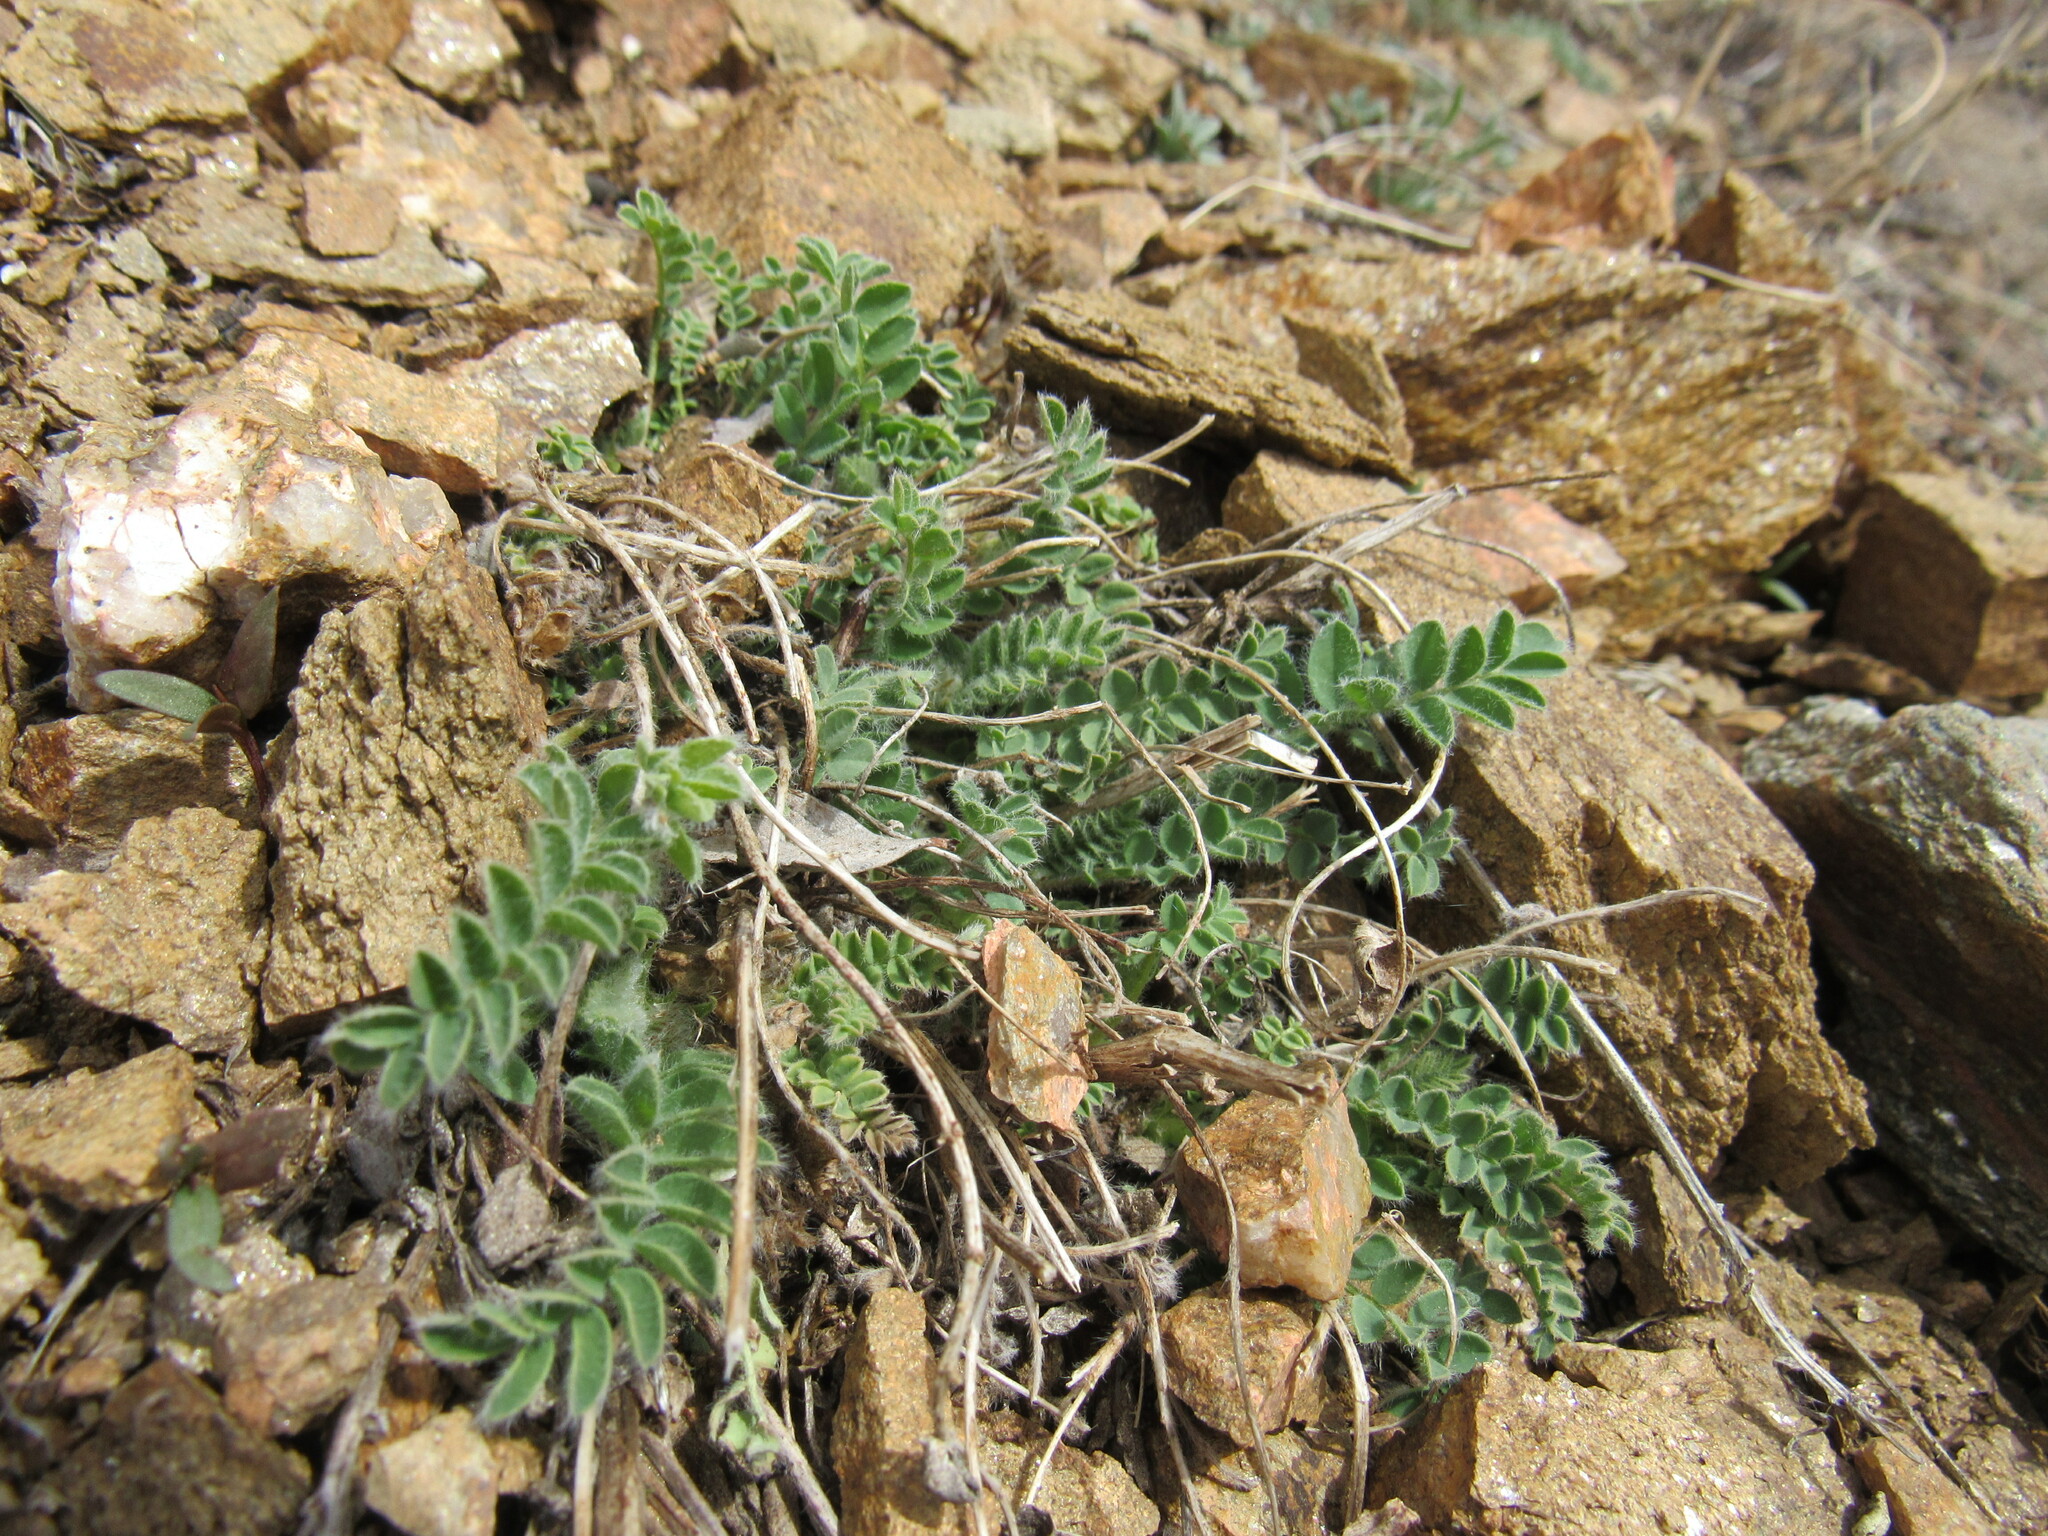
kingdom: Plantae
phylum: Tracheophyta
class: Magnoliopsida
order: Fabales
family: Fabaceae
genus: Astragalus
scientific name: Astragalus parryi
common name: Parry milk-vetch
